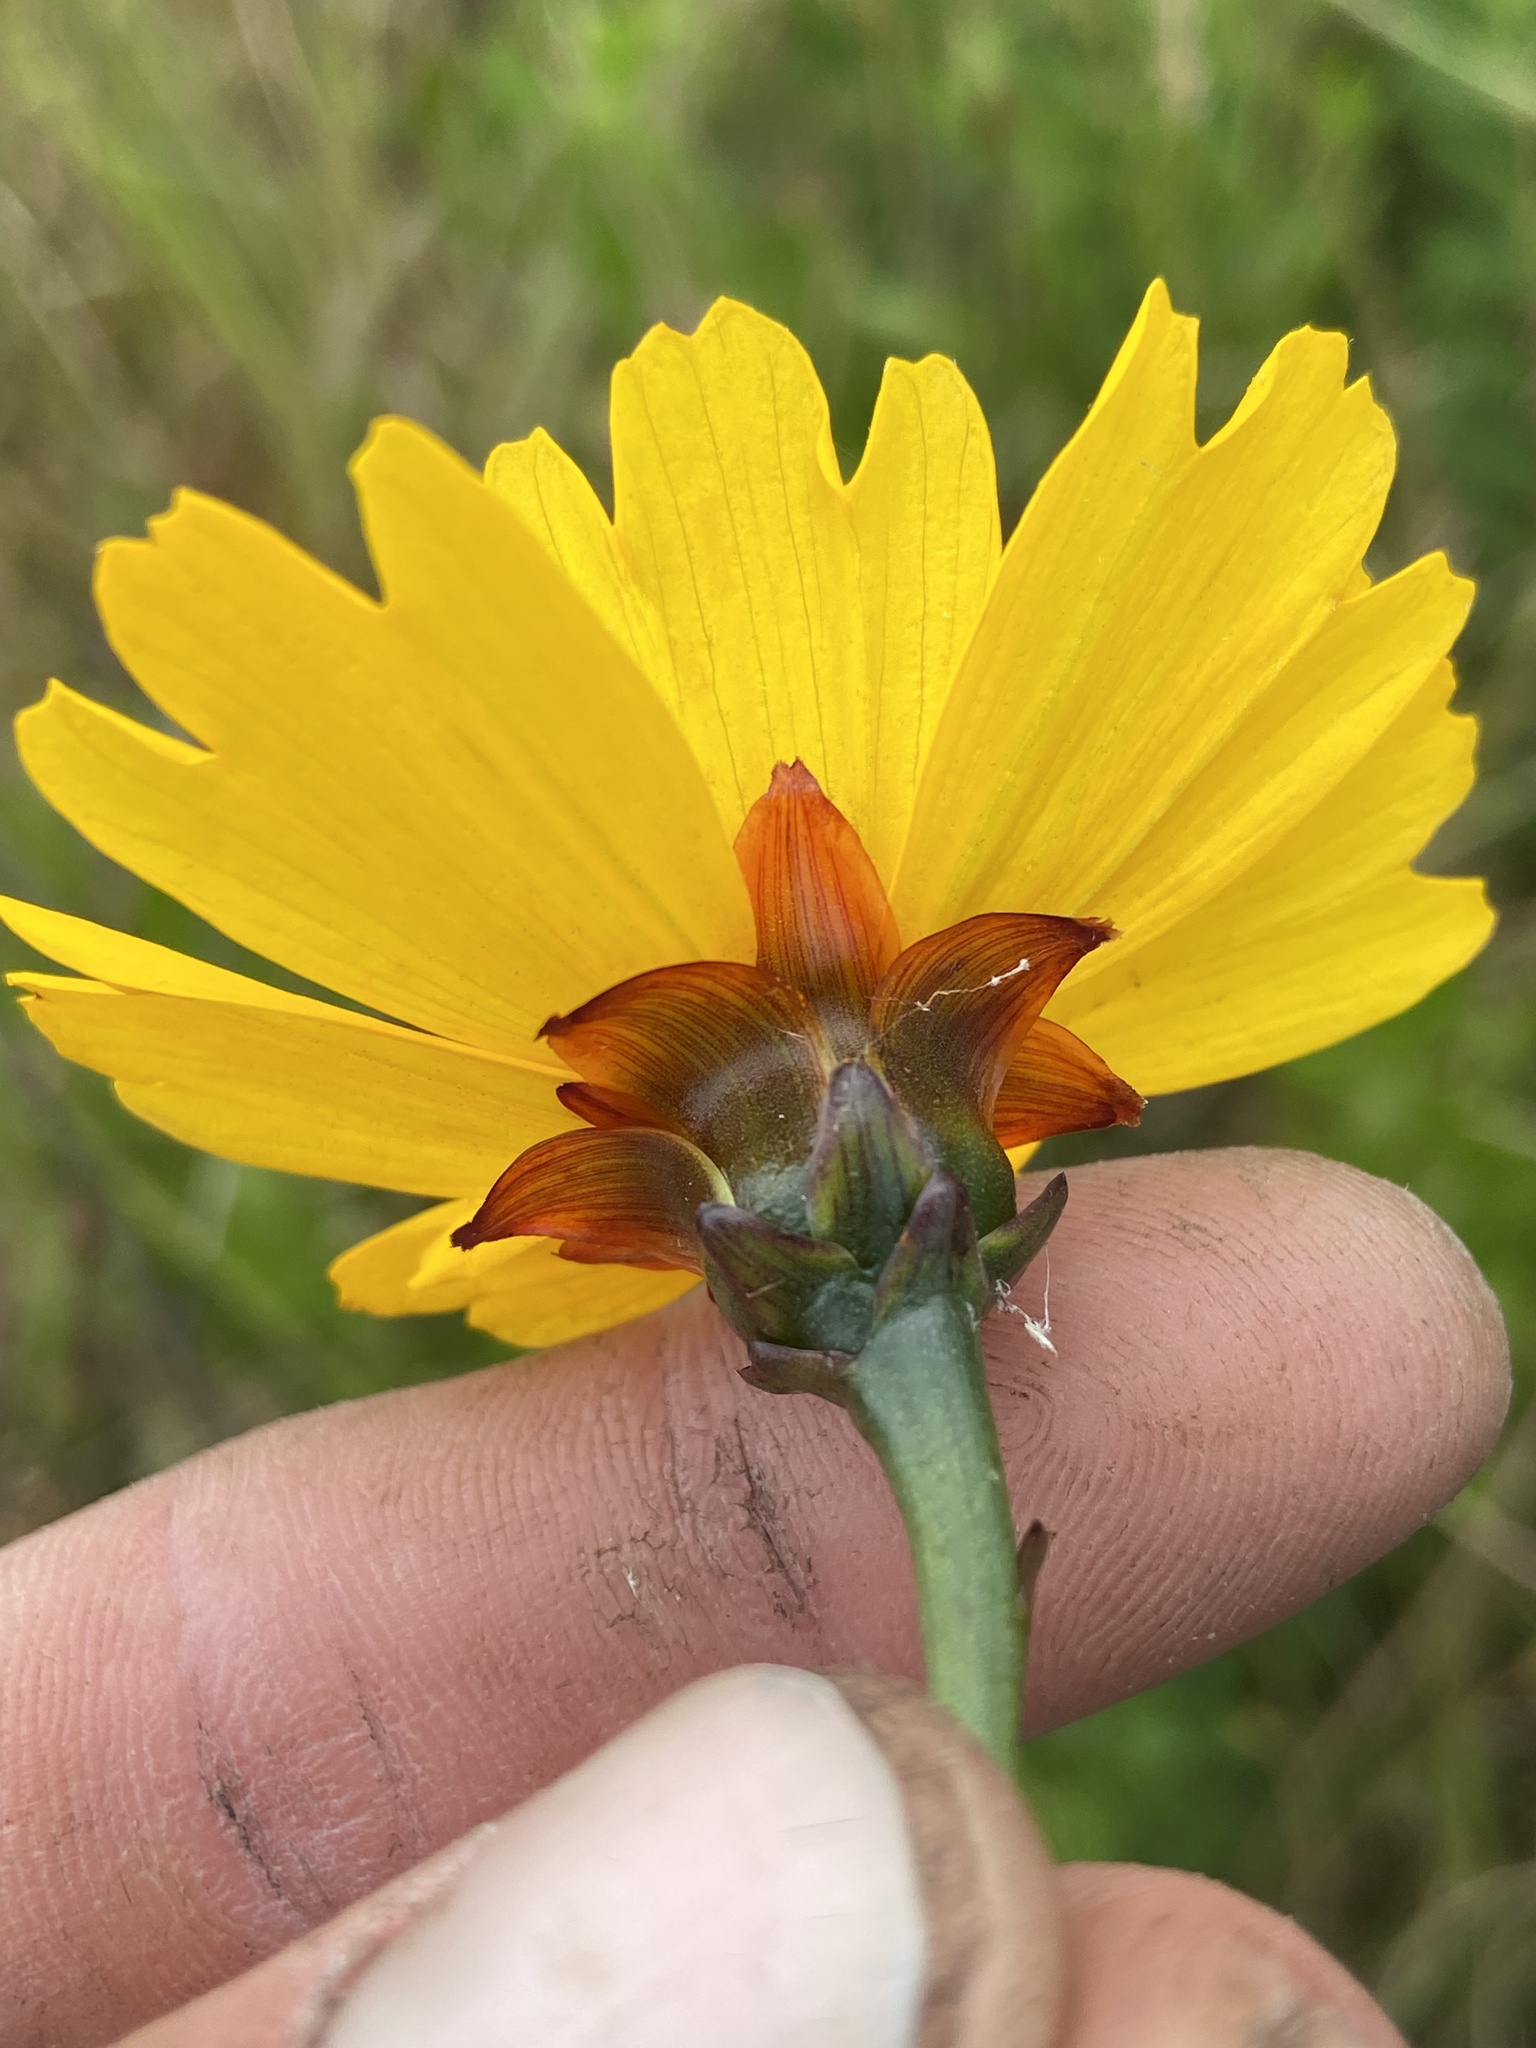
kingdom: Plantae
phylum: Tracheophyta
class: Magnoliopsida
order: Asterales
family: Asteraceae
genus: Coreopsis
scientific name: Coreopsis gladiata
